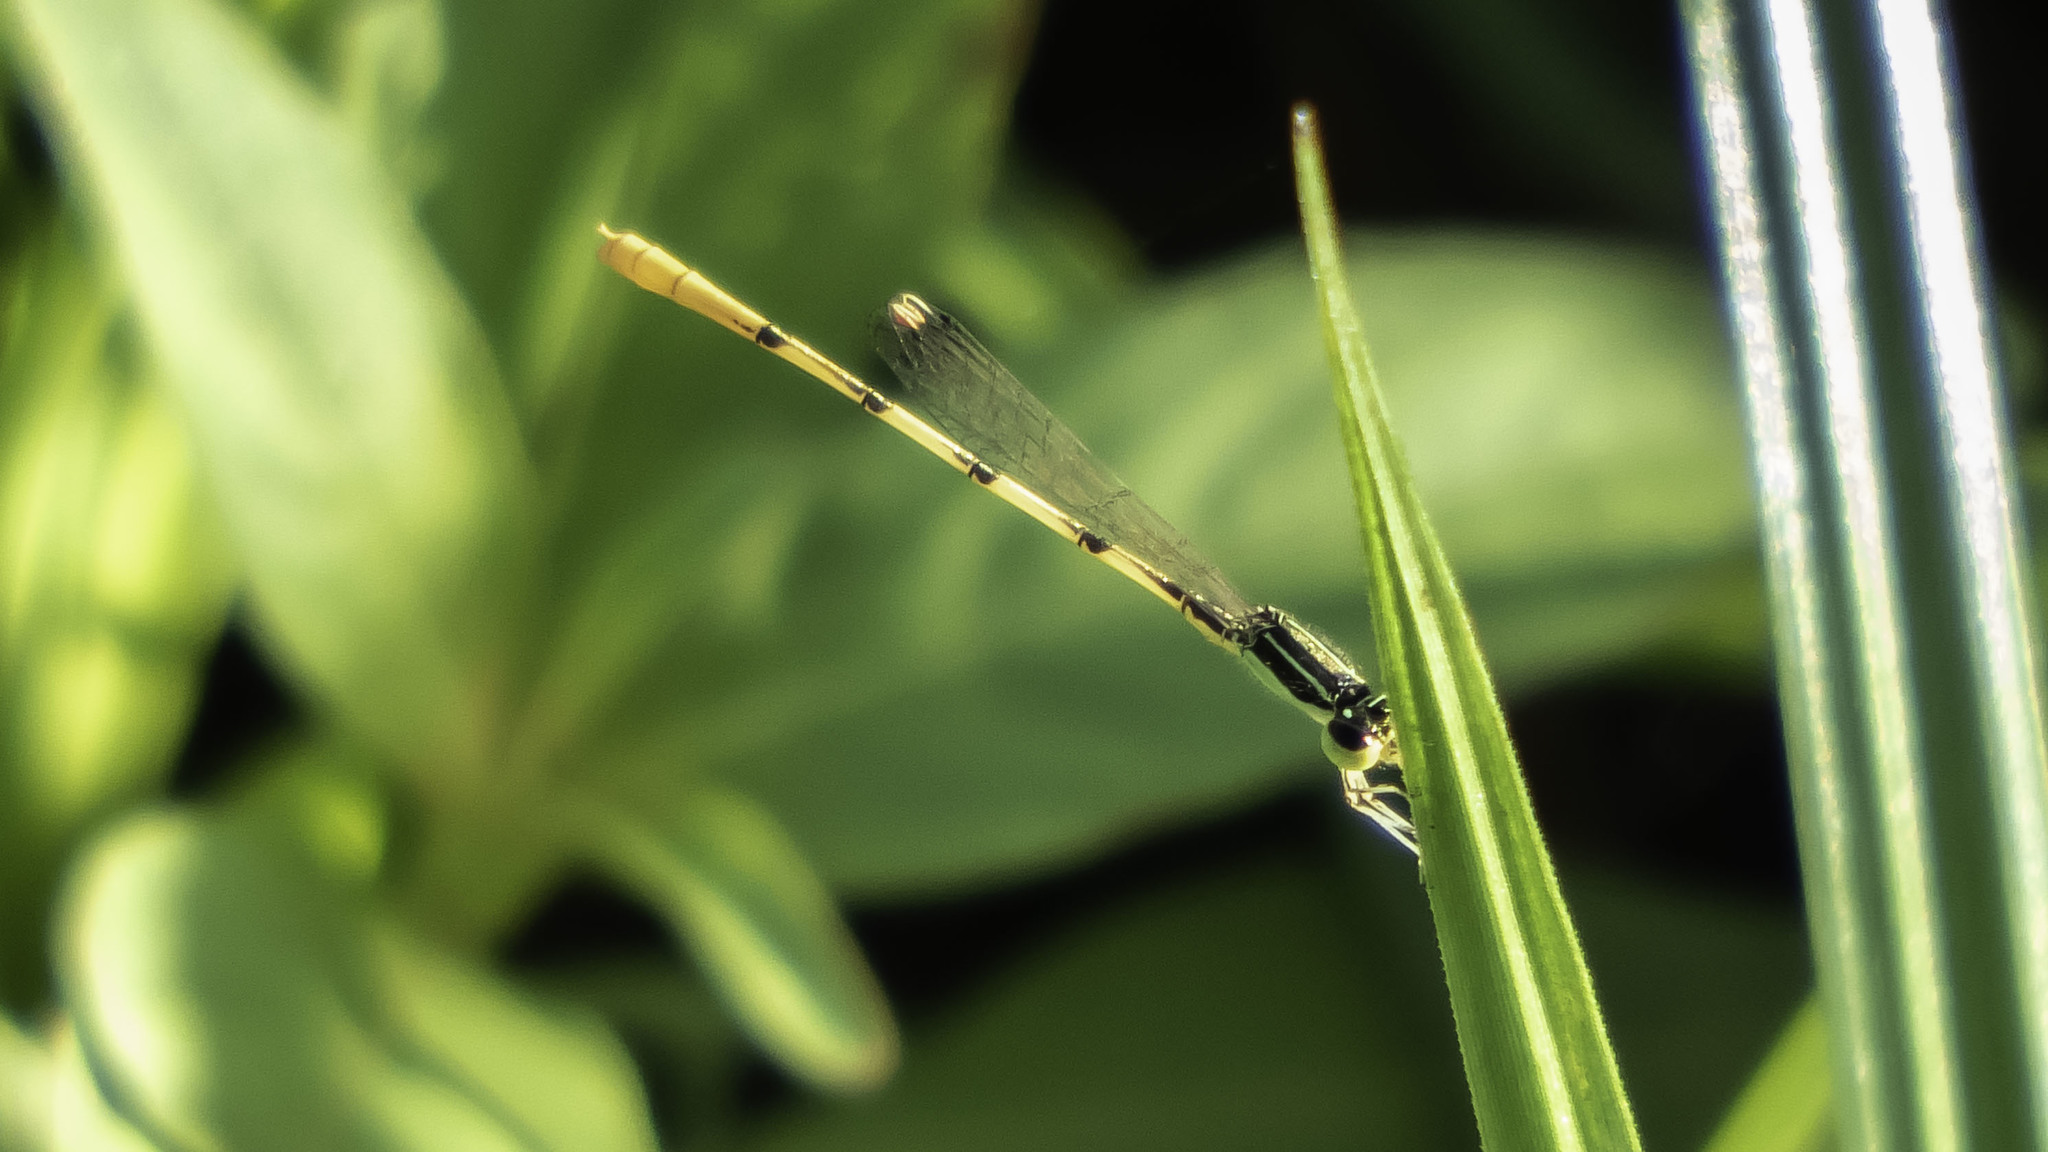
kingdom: Animalia
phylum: Arthropoda
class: Insecta
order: Odonata
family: Coenagrionidae
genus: Ischnura
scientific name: Ischnura hastata
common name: Citrine forktail
